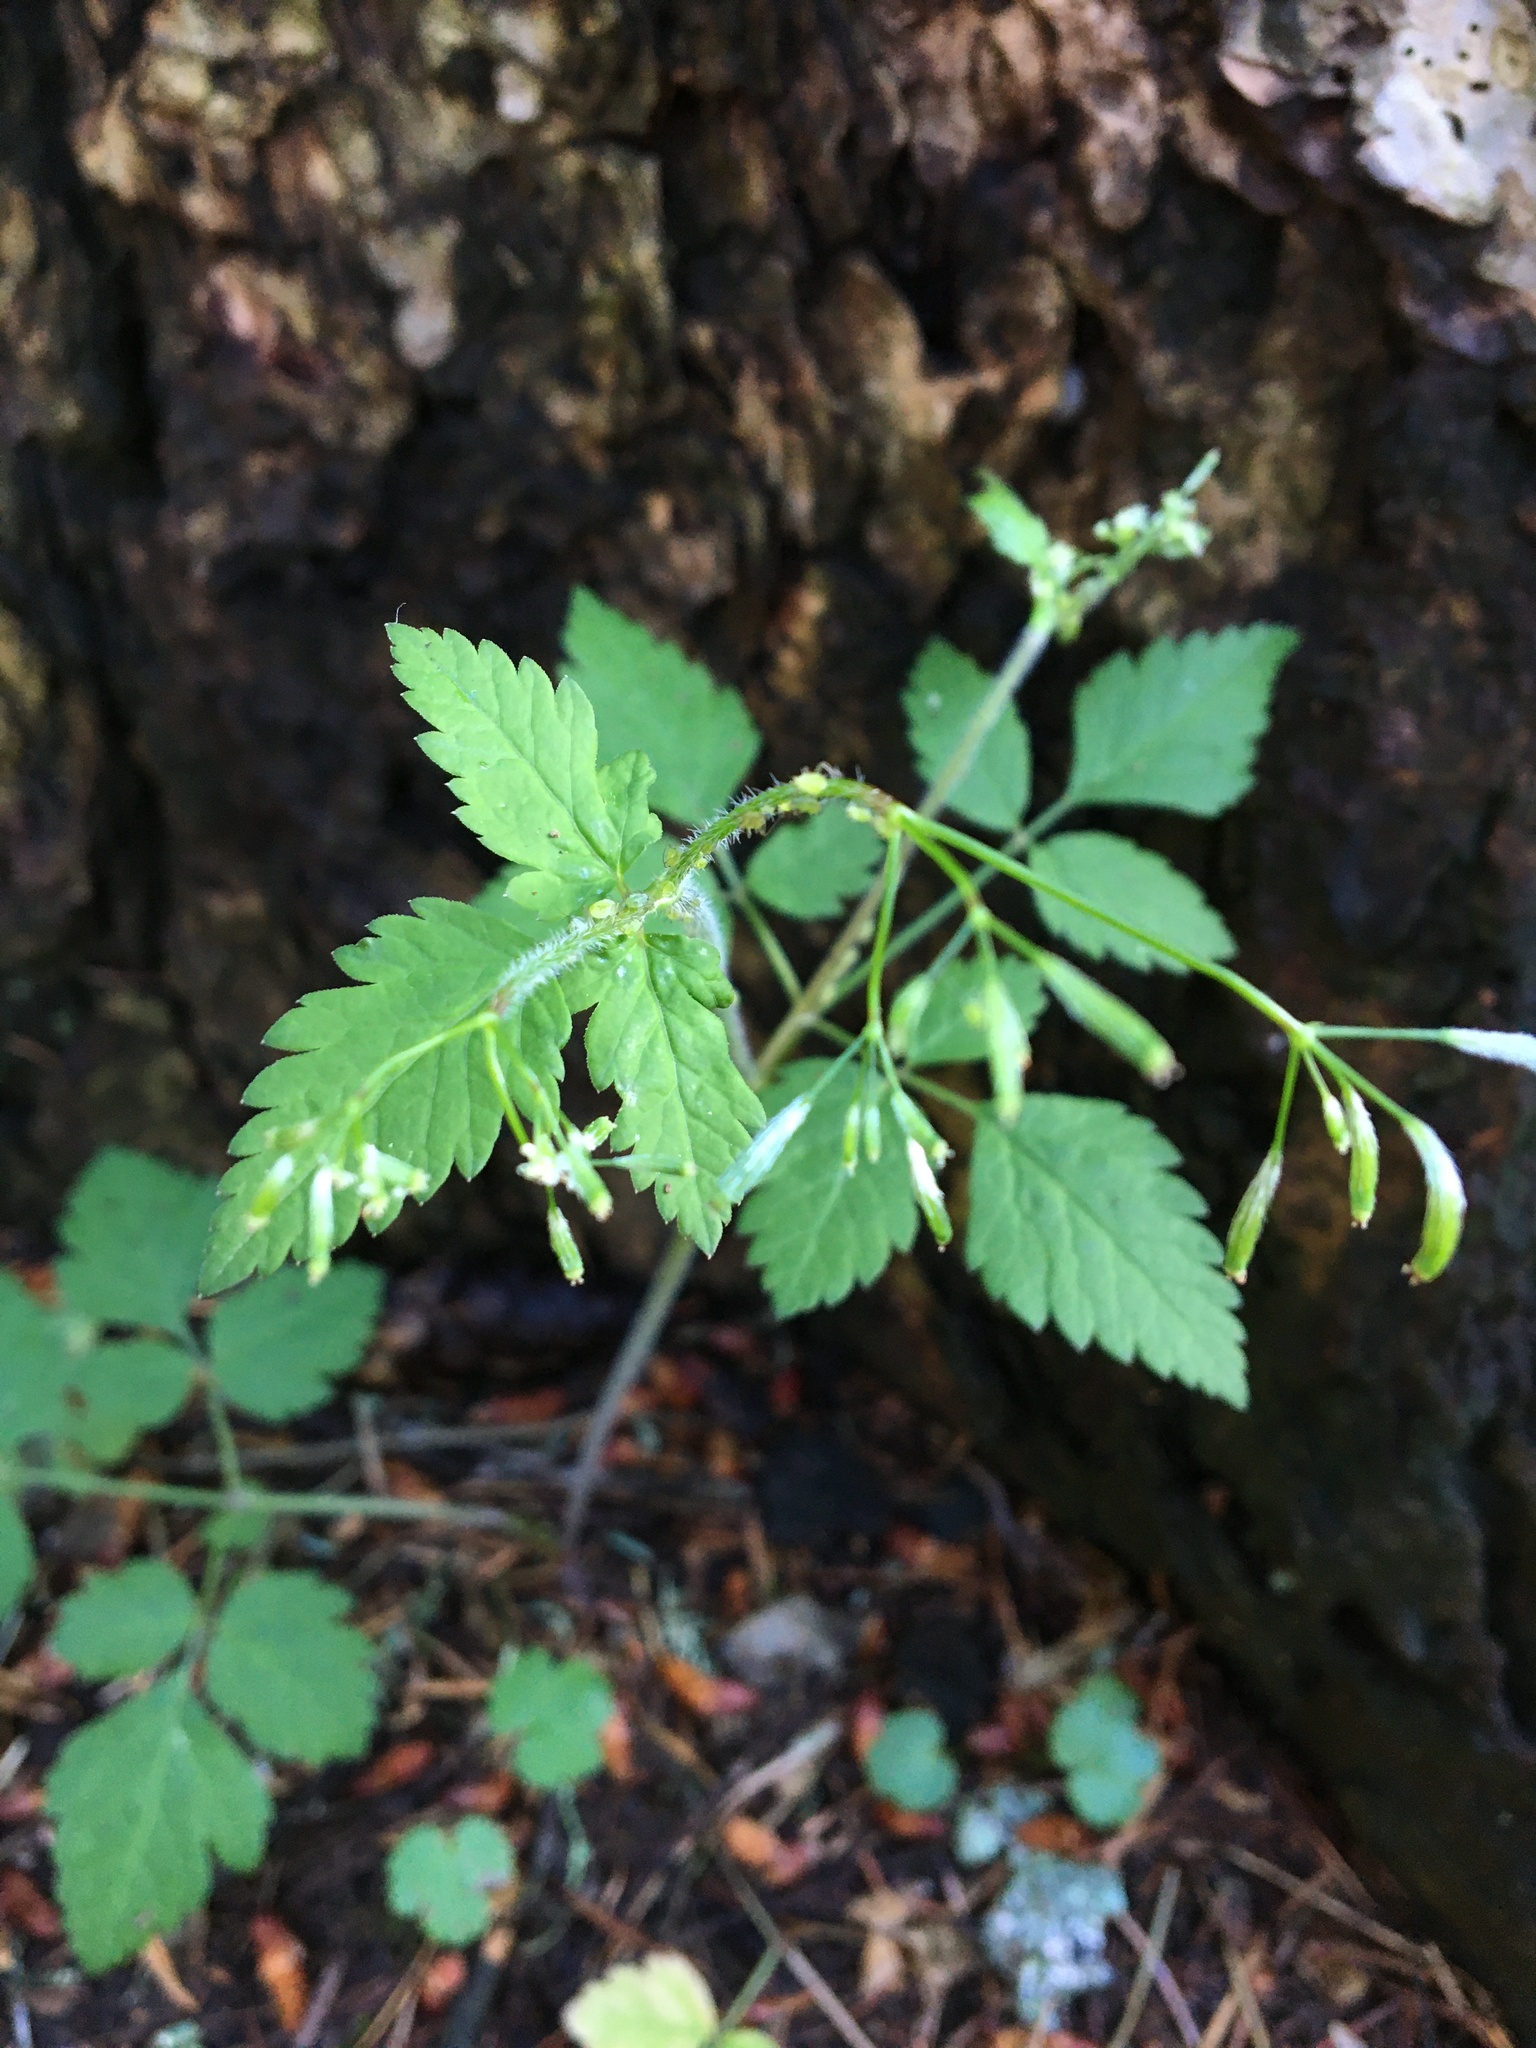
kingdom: Plantae
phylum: Tracheophyta
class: Magnoliopsida
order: Apiales
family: Apiaceae
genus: Osmorhiza
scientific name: Osmorhiza berteroi
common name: Mountain sweet cicely
